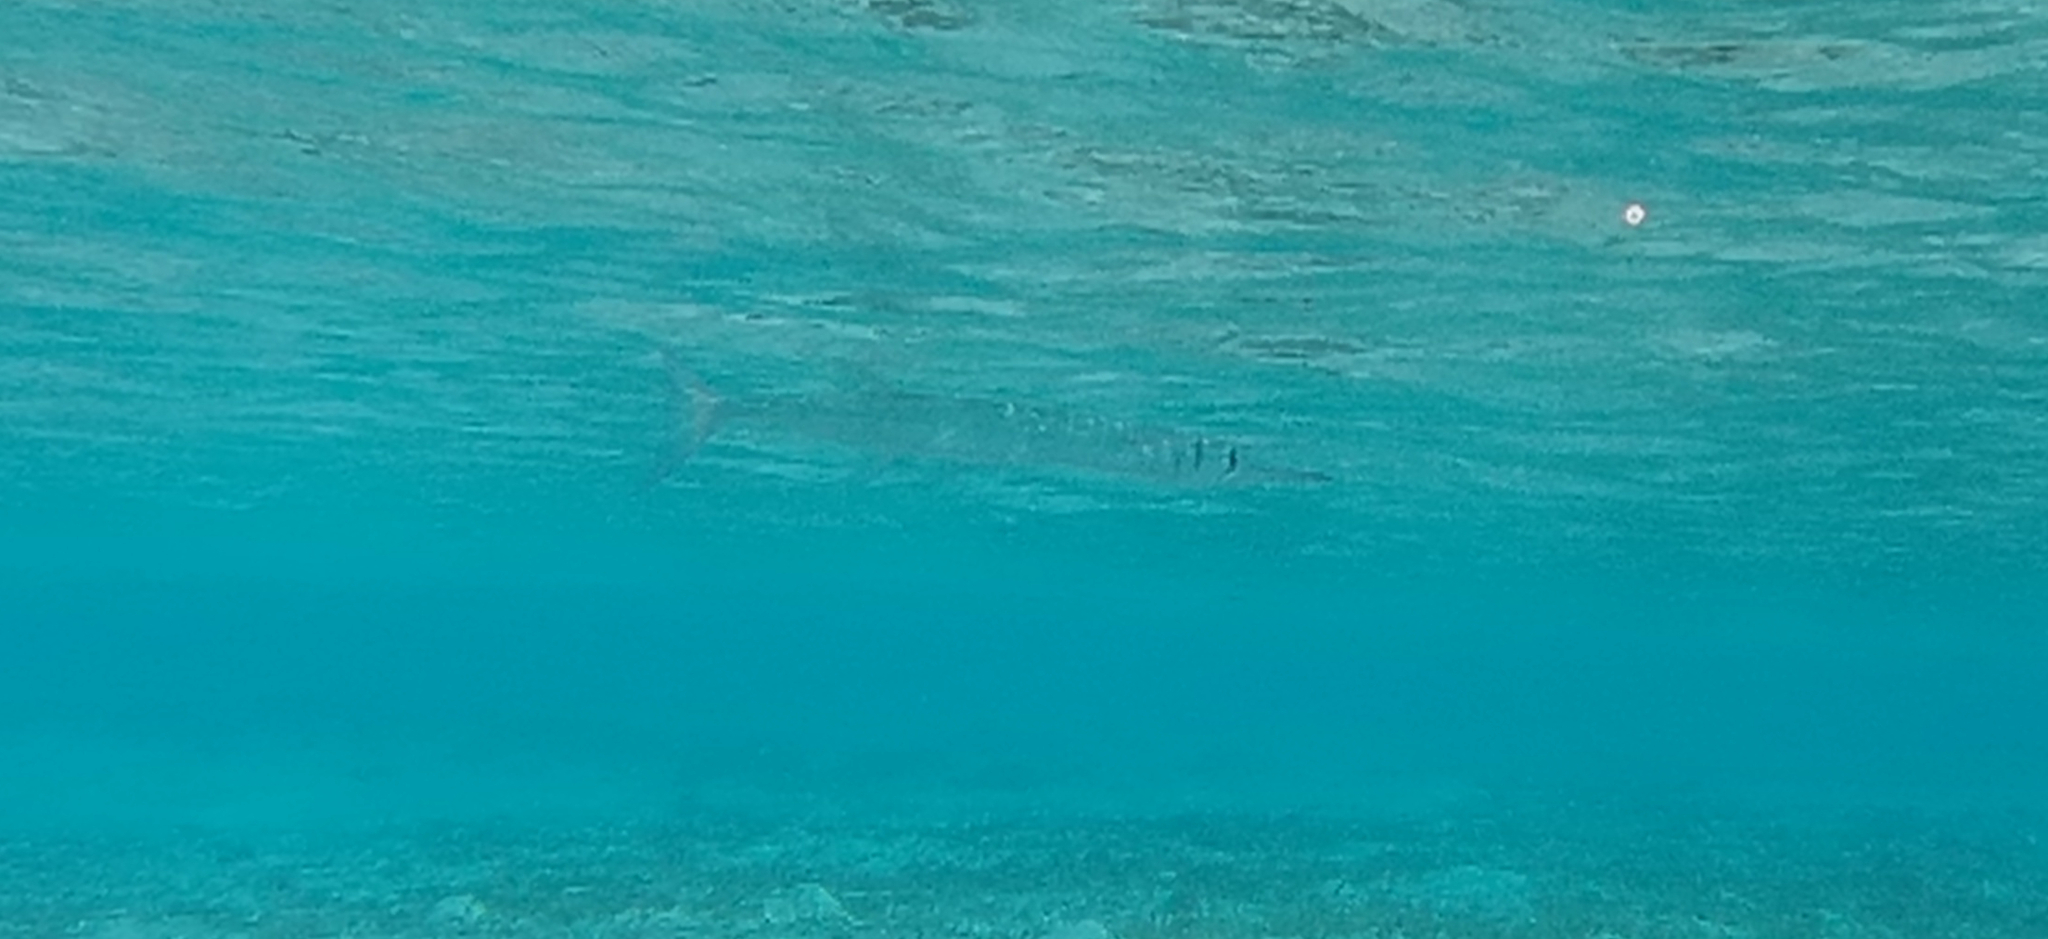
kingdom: Animalia
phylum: Chordata
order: Beloniformes
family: Belonidae
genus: Tylosurus
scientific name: Tylosurus crocodilus
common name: Houndfish
